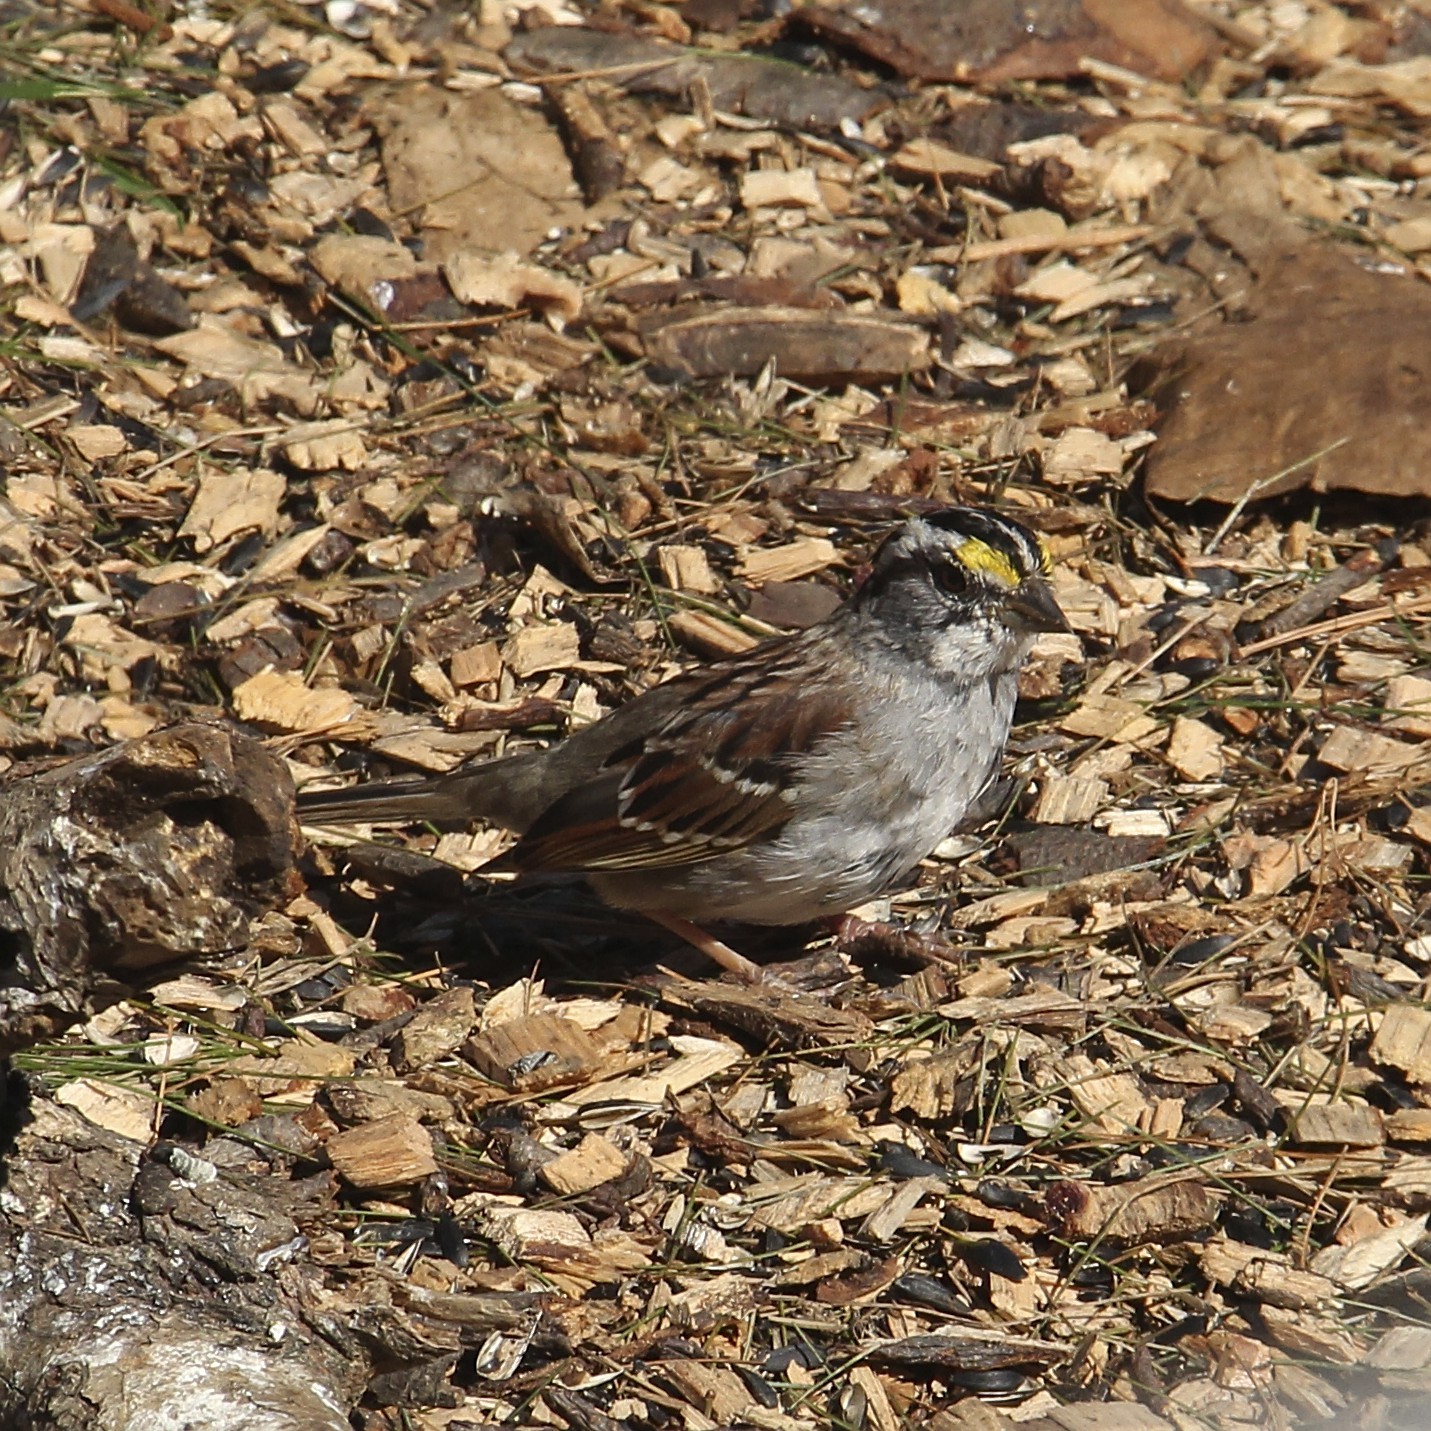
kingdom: Animalia
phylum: Chordata
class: Aves
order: Passeriformes
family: Passerellidae
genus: Zonotrichia
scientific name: Zonotrichia albicollis
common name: White-throated sparrow
